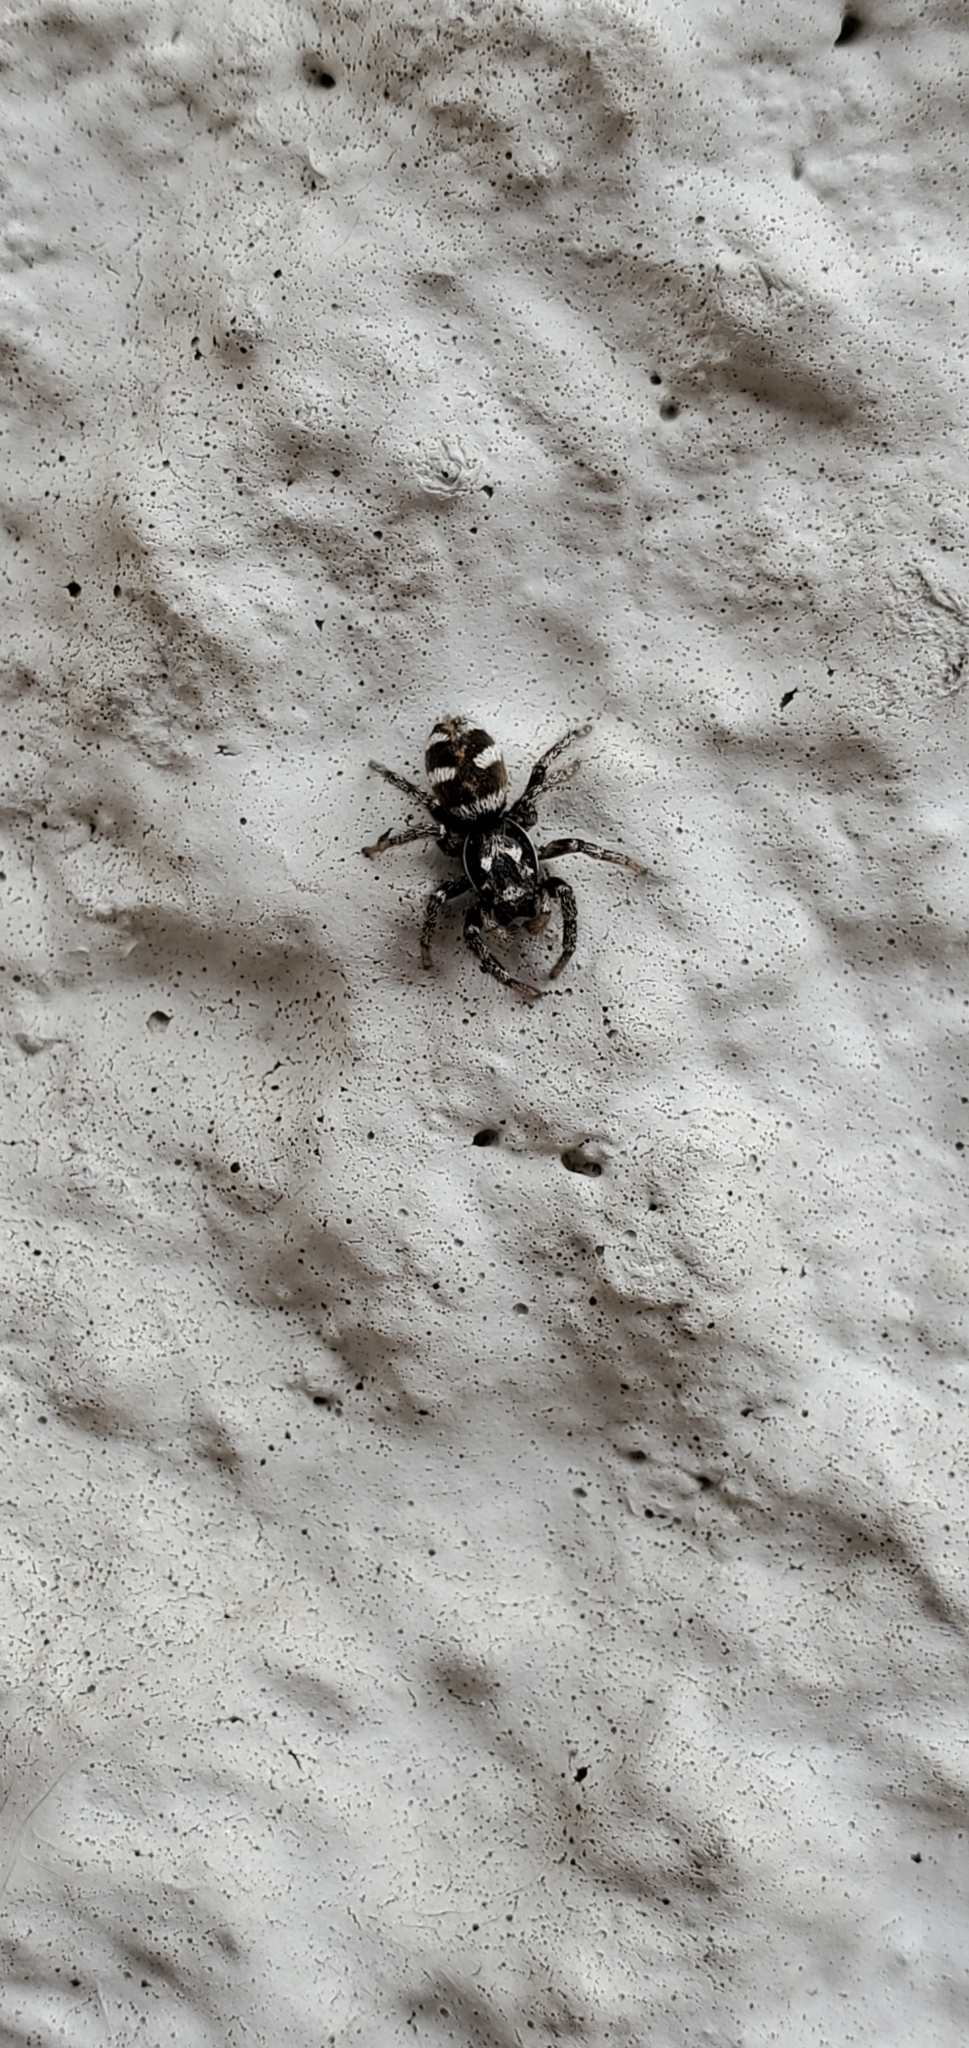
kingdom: Animalia
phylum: Arthropoda
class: Arachnida
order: Araneae
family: Salticidae
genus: Salticus
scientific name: Salticus scenicus
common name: Zebra jumper
